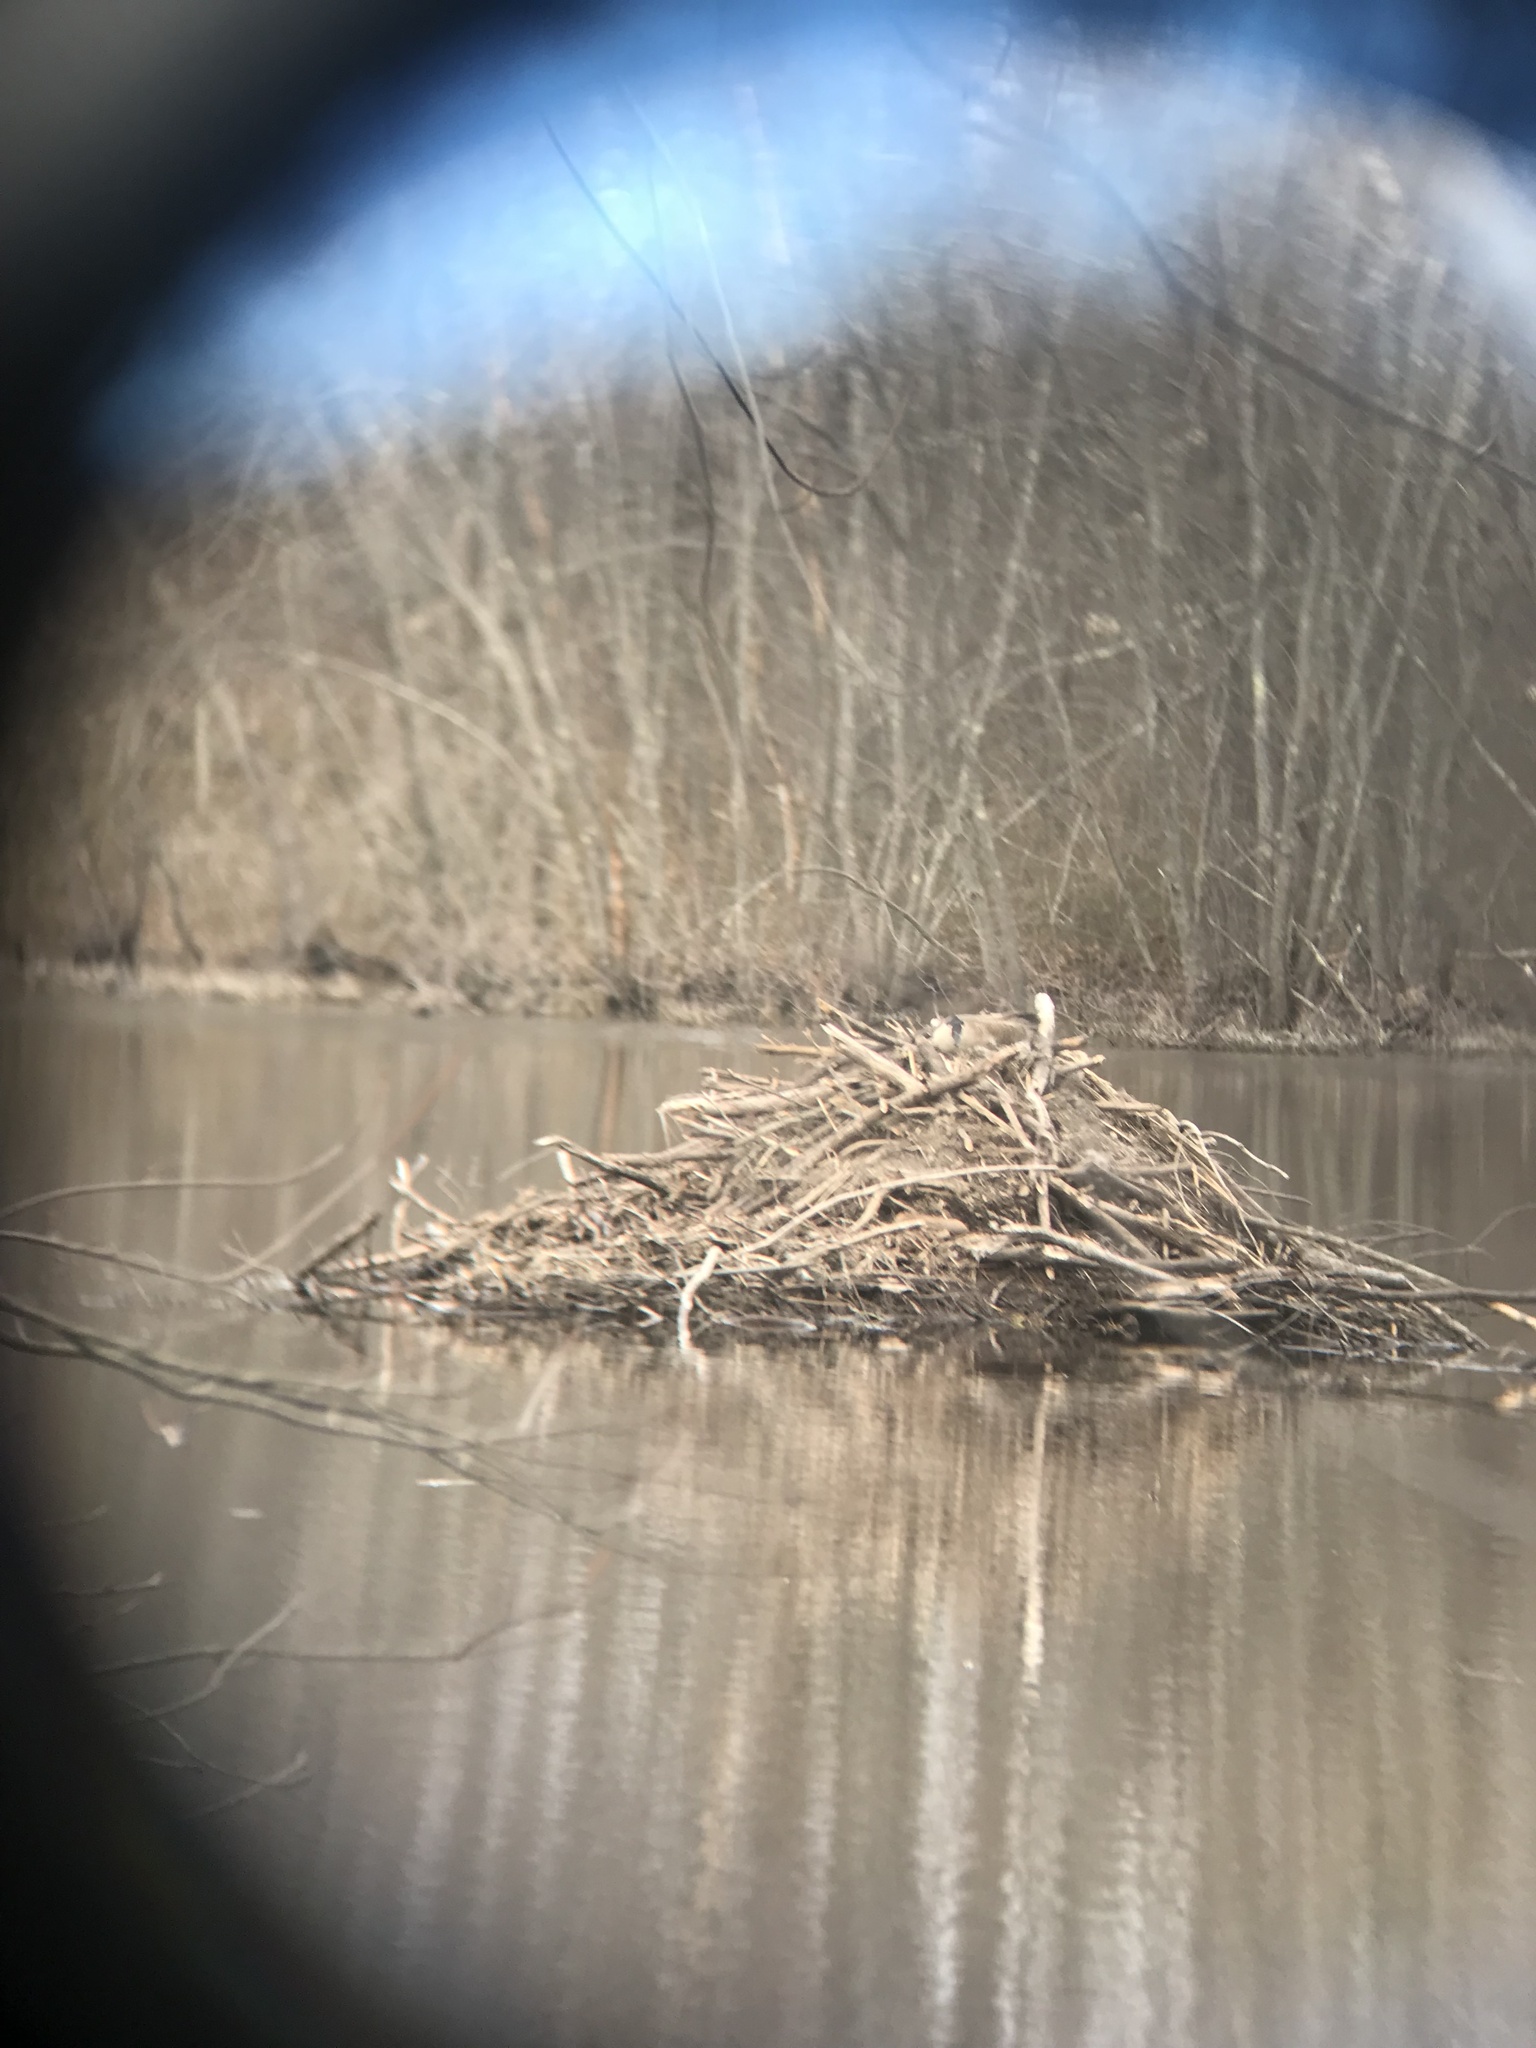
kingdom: Animalia
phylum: Chordata
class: Aves
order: Anseriformes
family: Anatidae
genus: Branta
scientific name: Branta canadensis
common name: Canada goose
